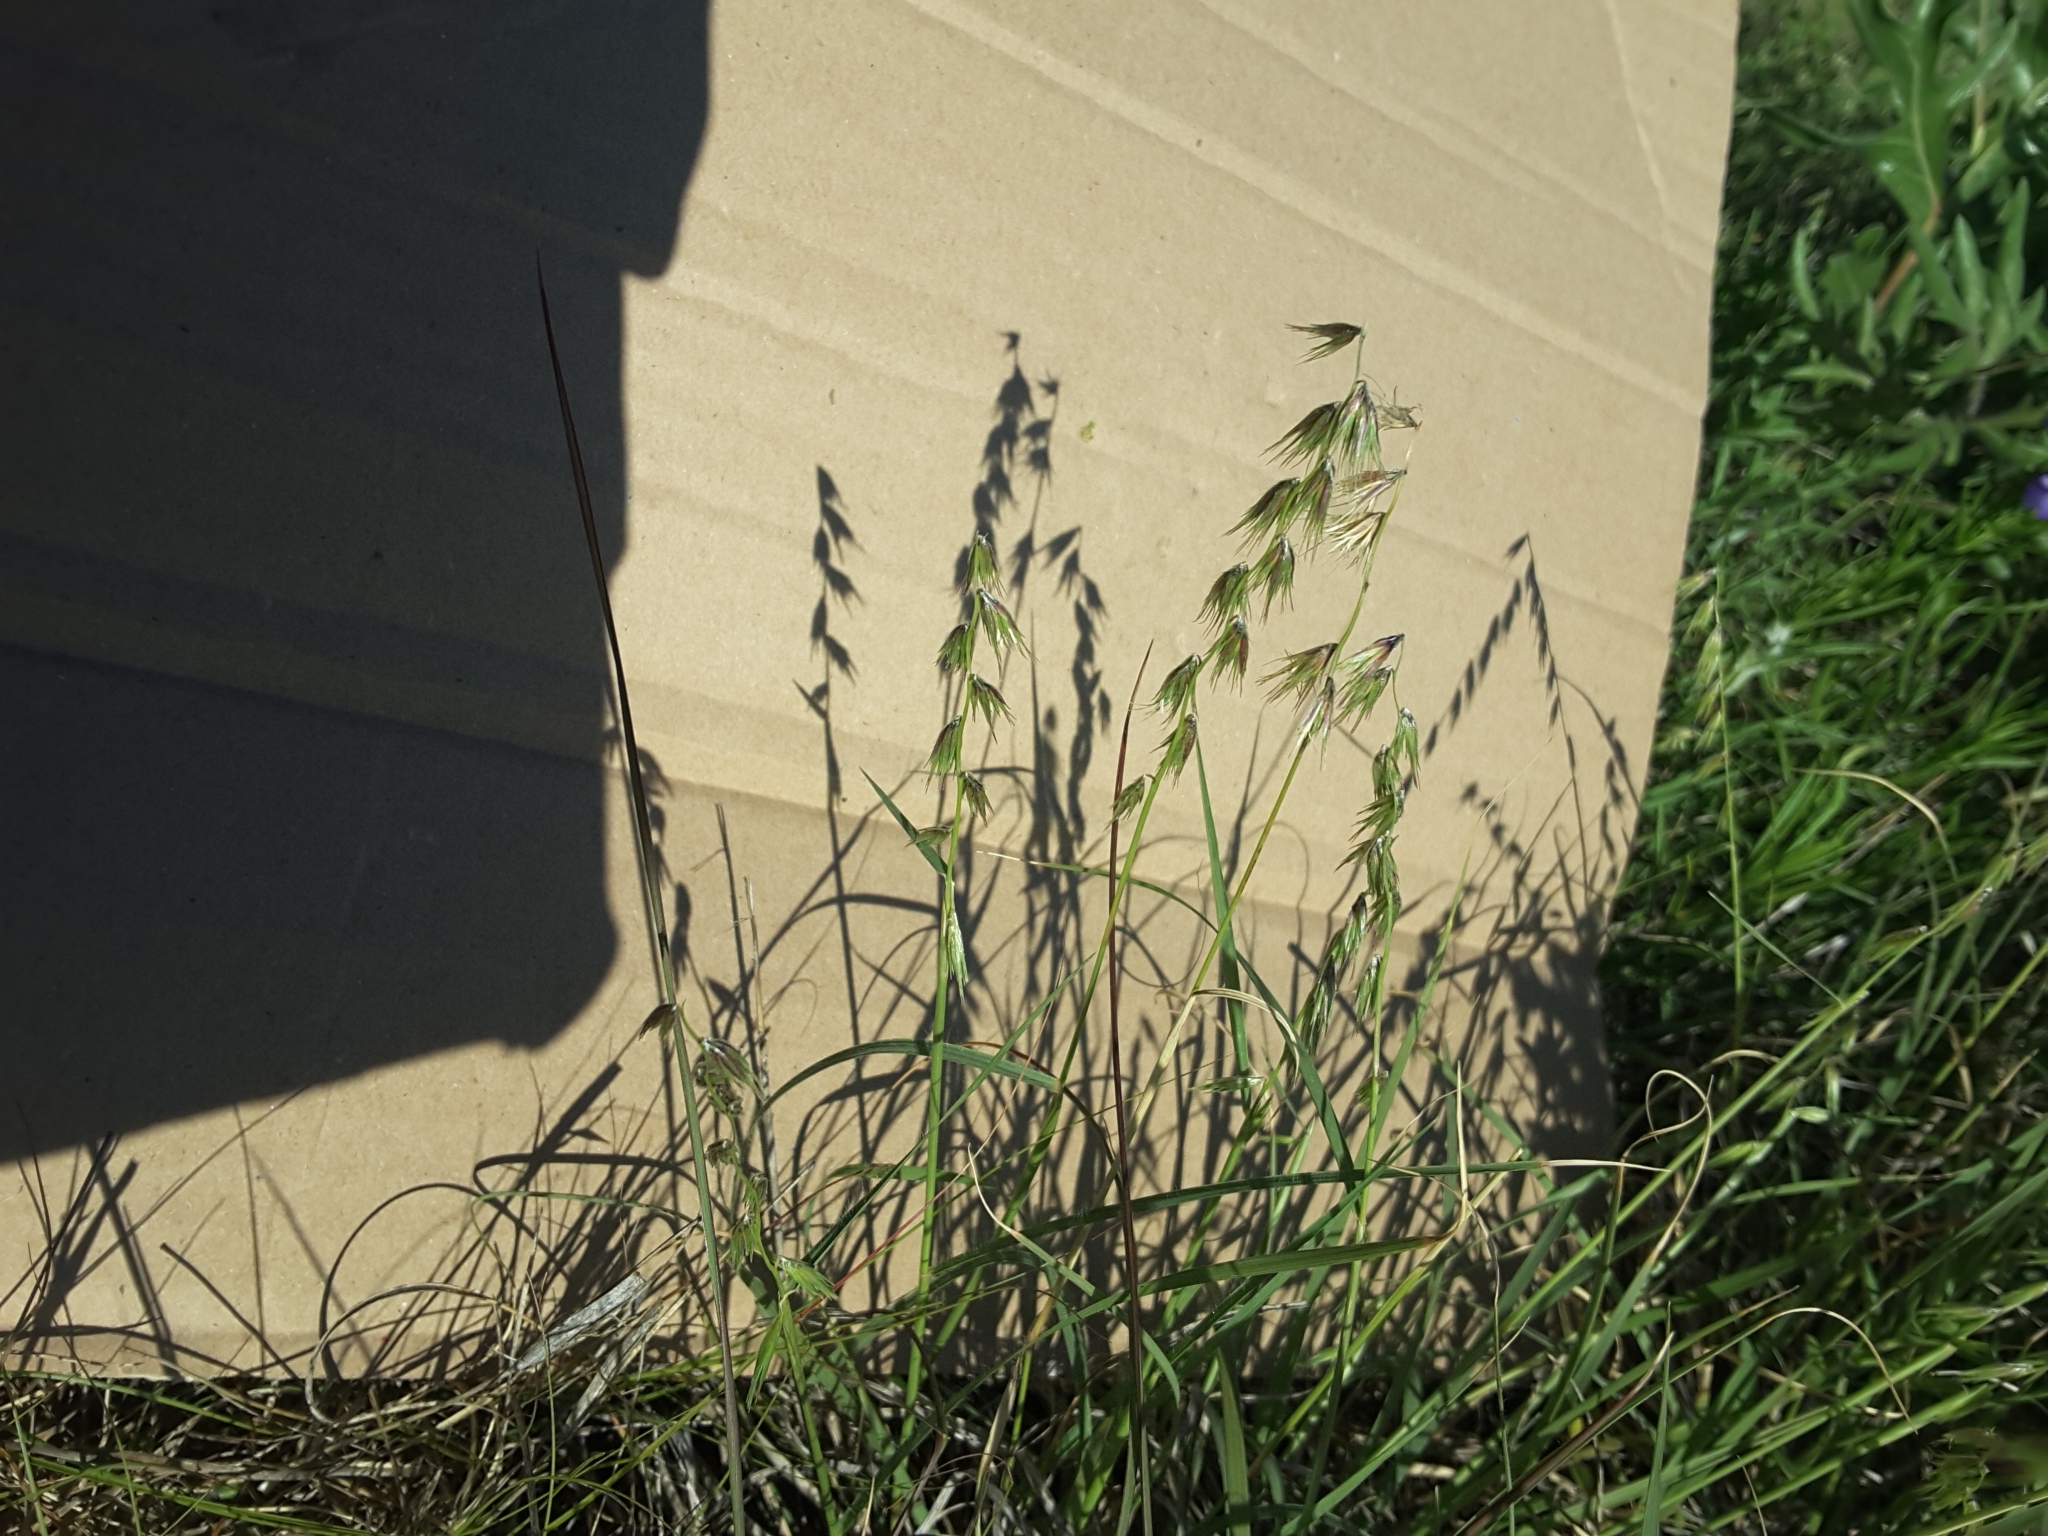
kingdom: Plantae
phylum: Tracheophyta
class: Liliopsida
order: Poales
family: Poaceae
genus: Bouteloua
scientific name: Bouteloua rigidiseta
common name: Texas grama
